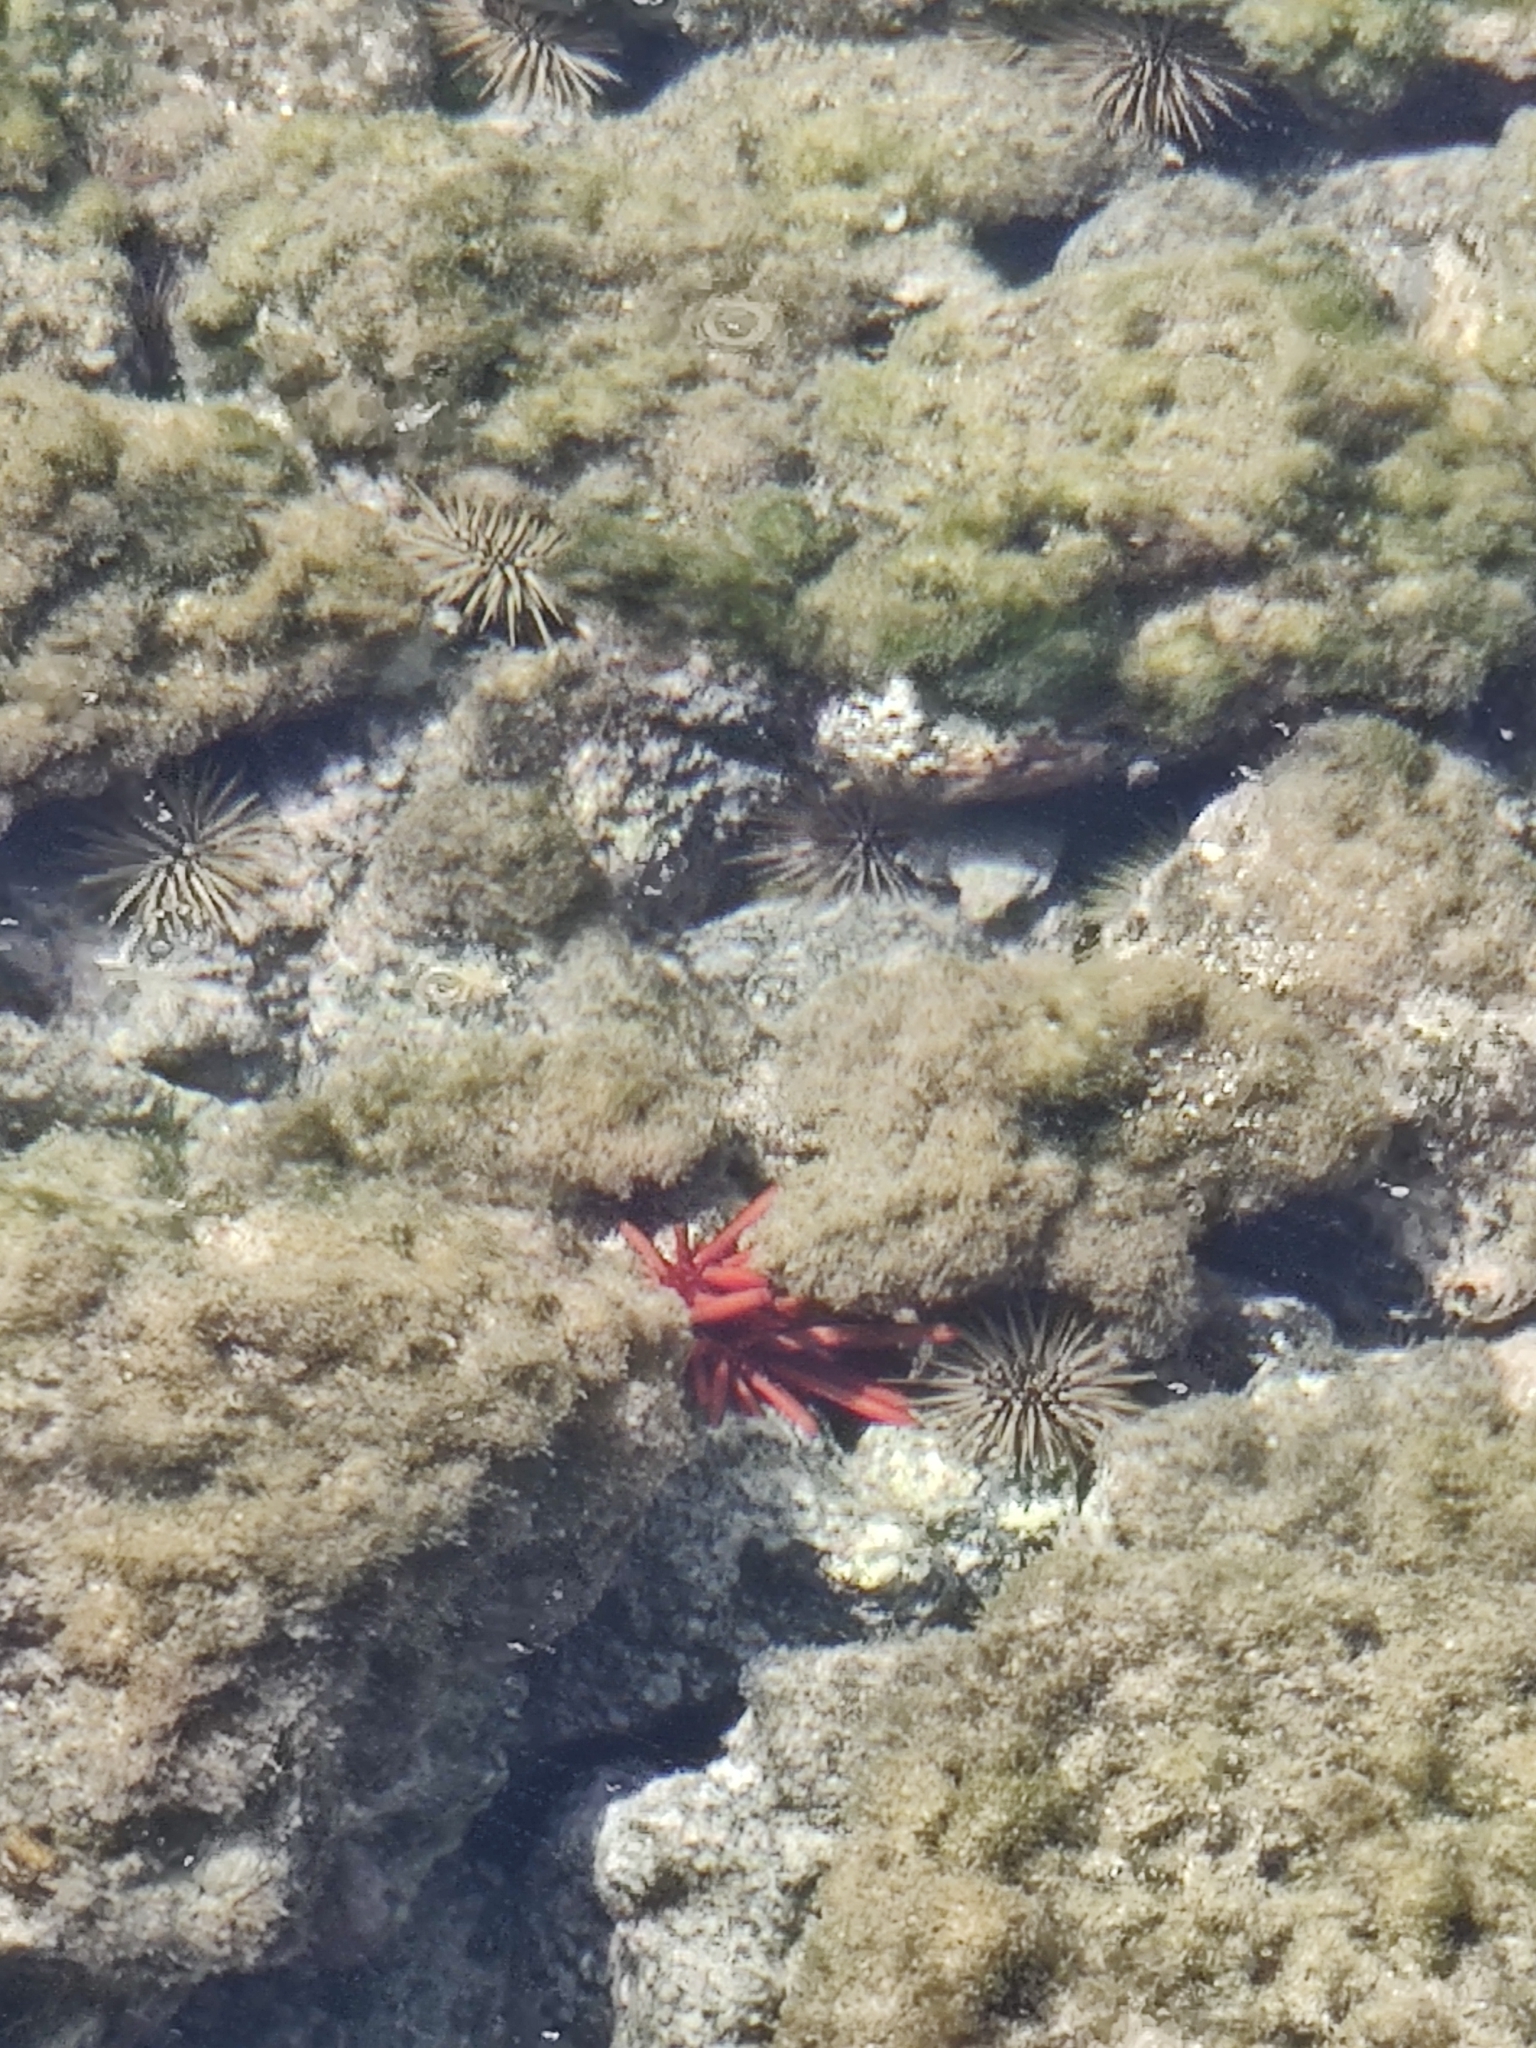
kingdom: Animalia
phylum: Echinodermata
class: Echinoidea
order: Camarodonta
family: Echinometridae
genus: Heterocentrotus
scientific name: Heterocentrotus mamillatus
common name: Slate pencil urchin
